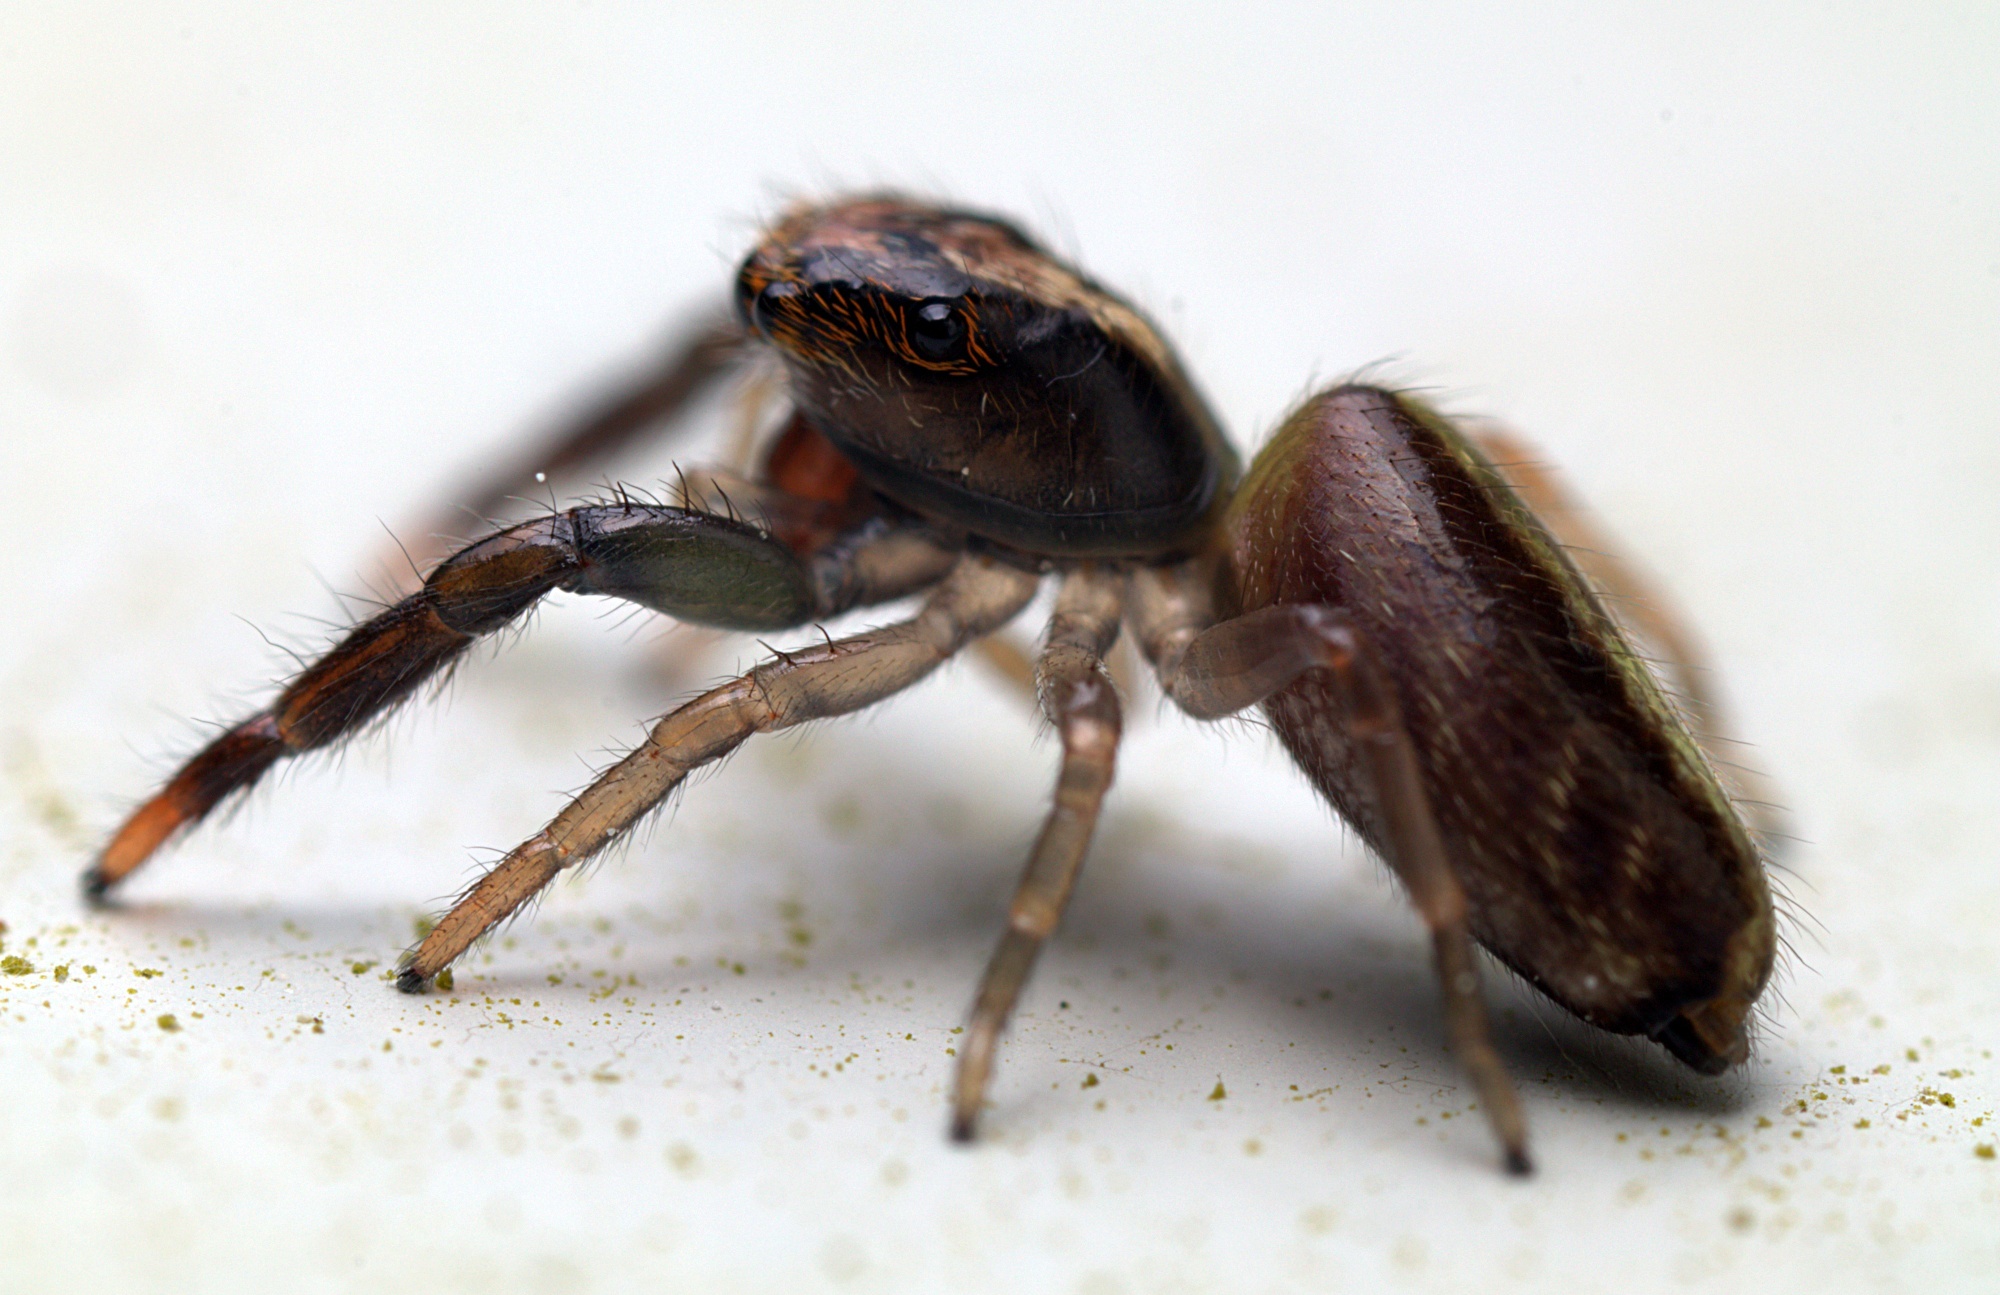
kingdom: Animalia
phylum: Arthropoda
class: Arachnida
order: Araneae
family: Salticidae
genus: Trite
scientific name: Trite planiceps
